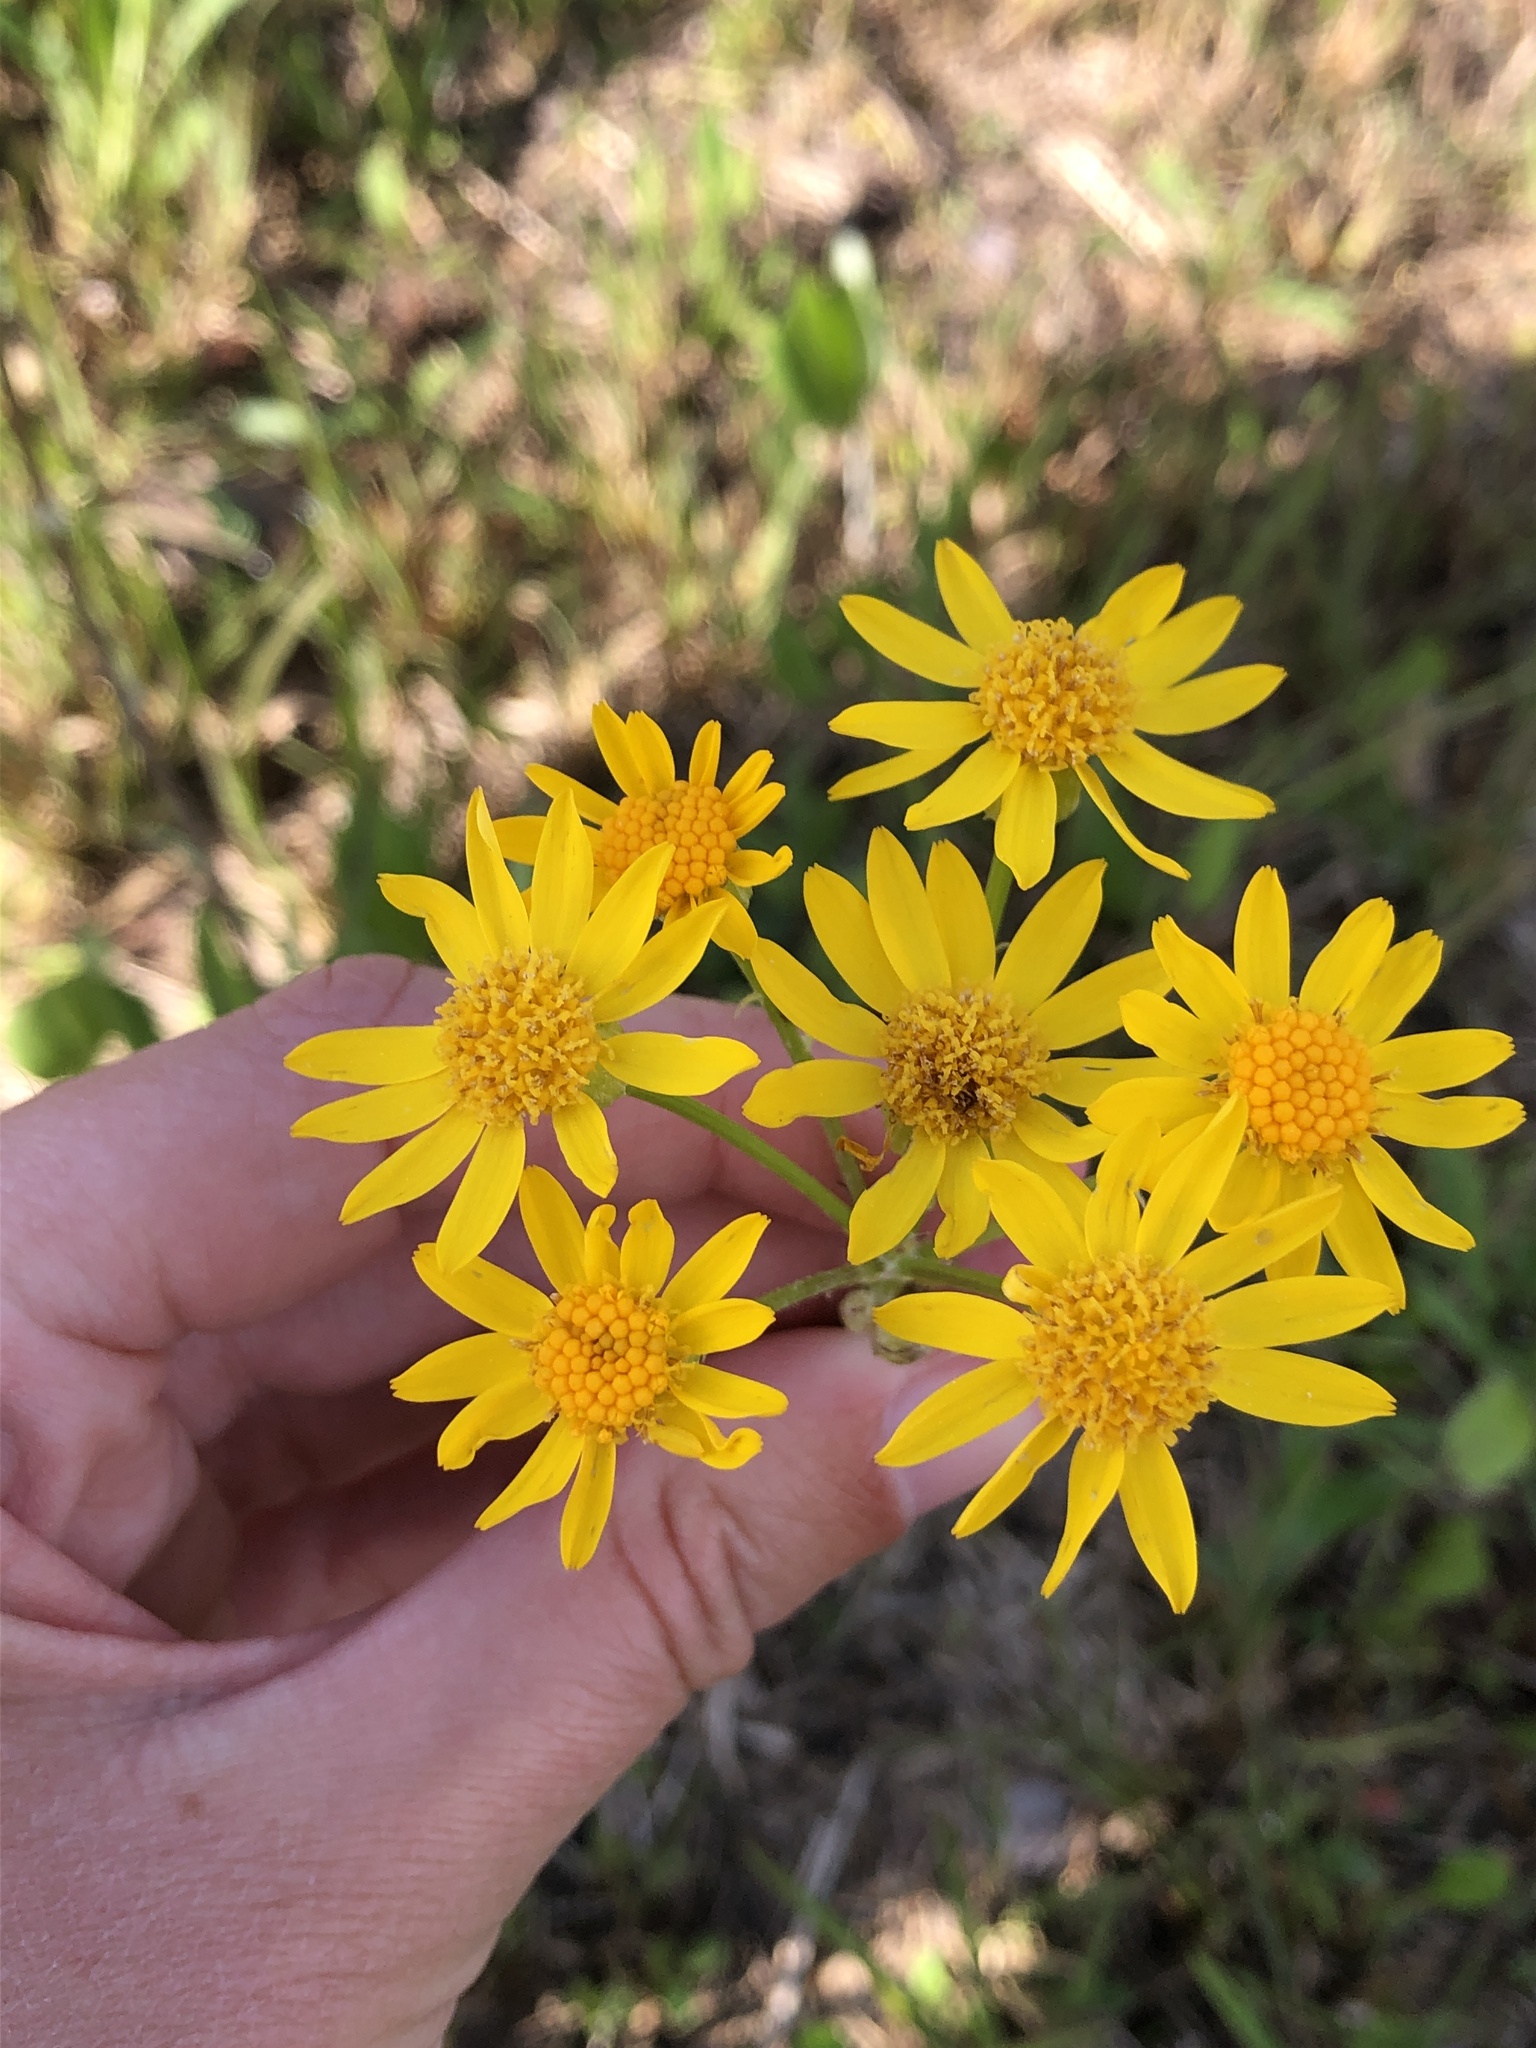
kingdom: Plantae
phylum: Tracheophyta
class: Magnoliopsida
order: Asterales
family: Asteraceae
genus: Packera
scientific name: Packera dubia
